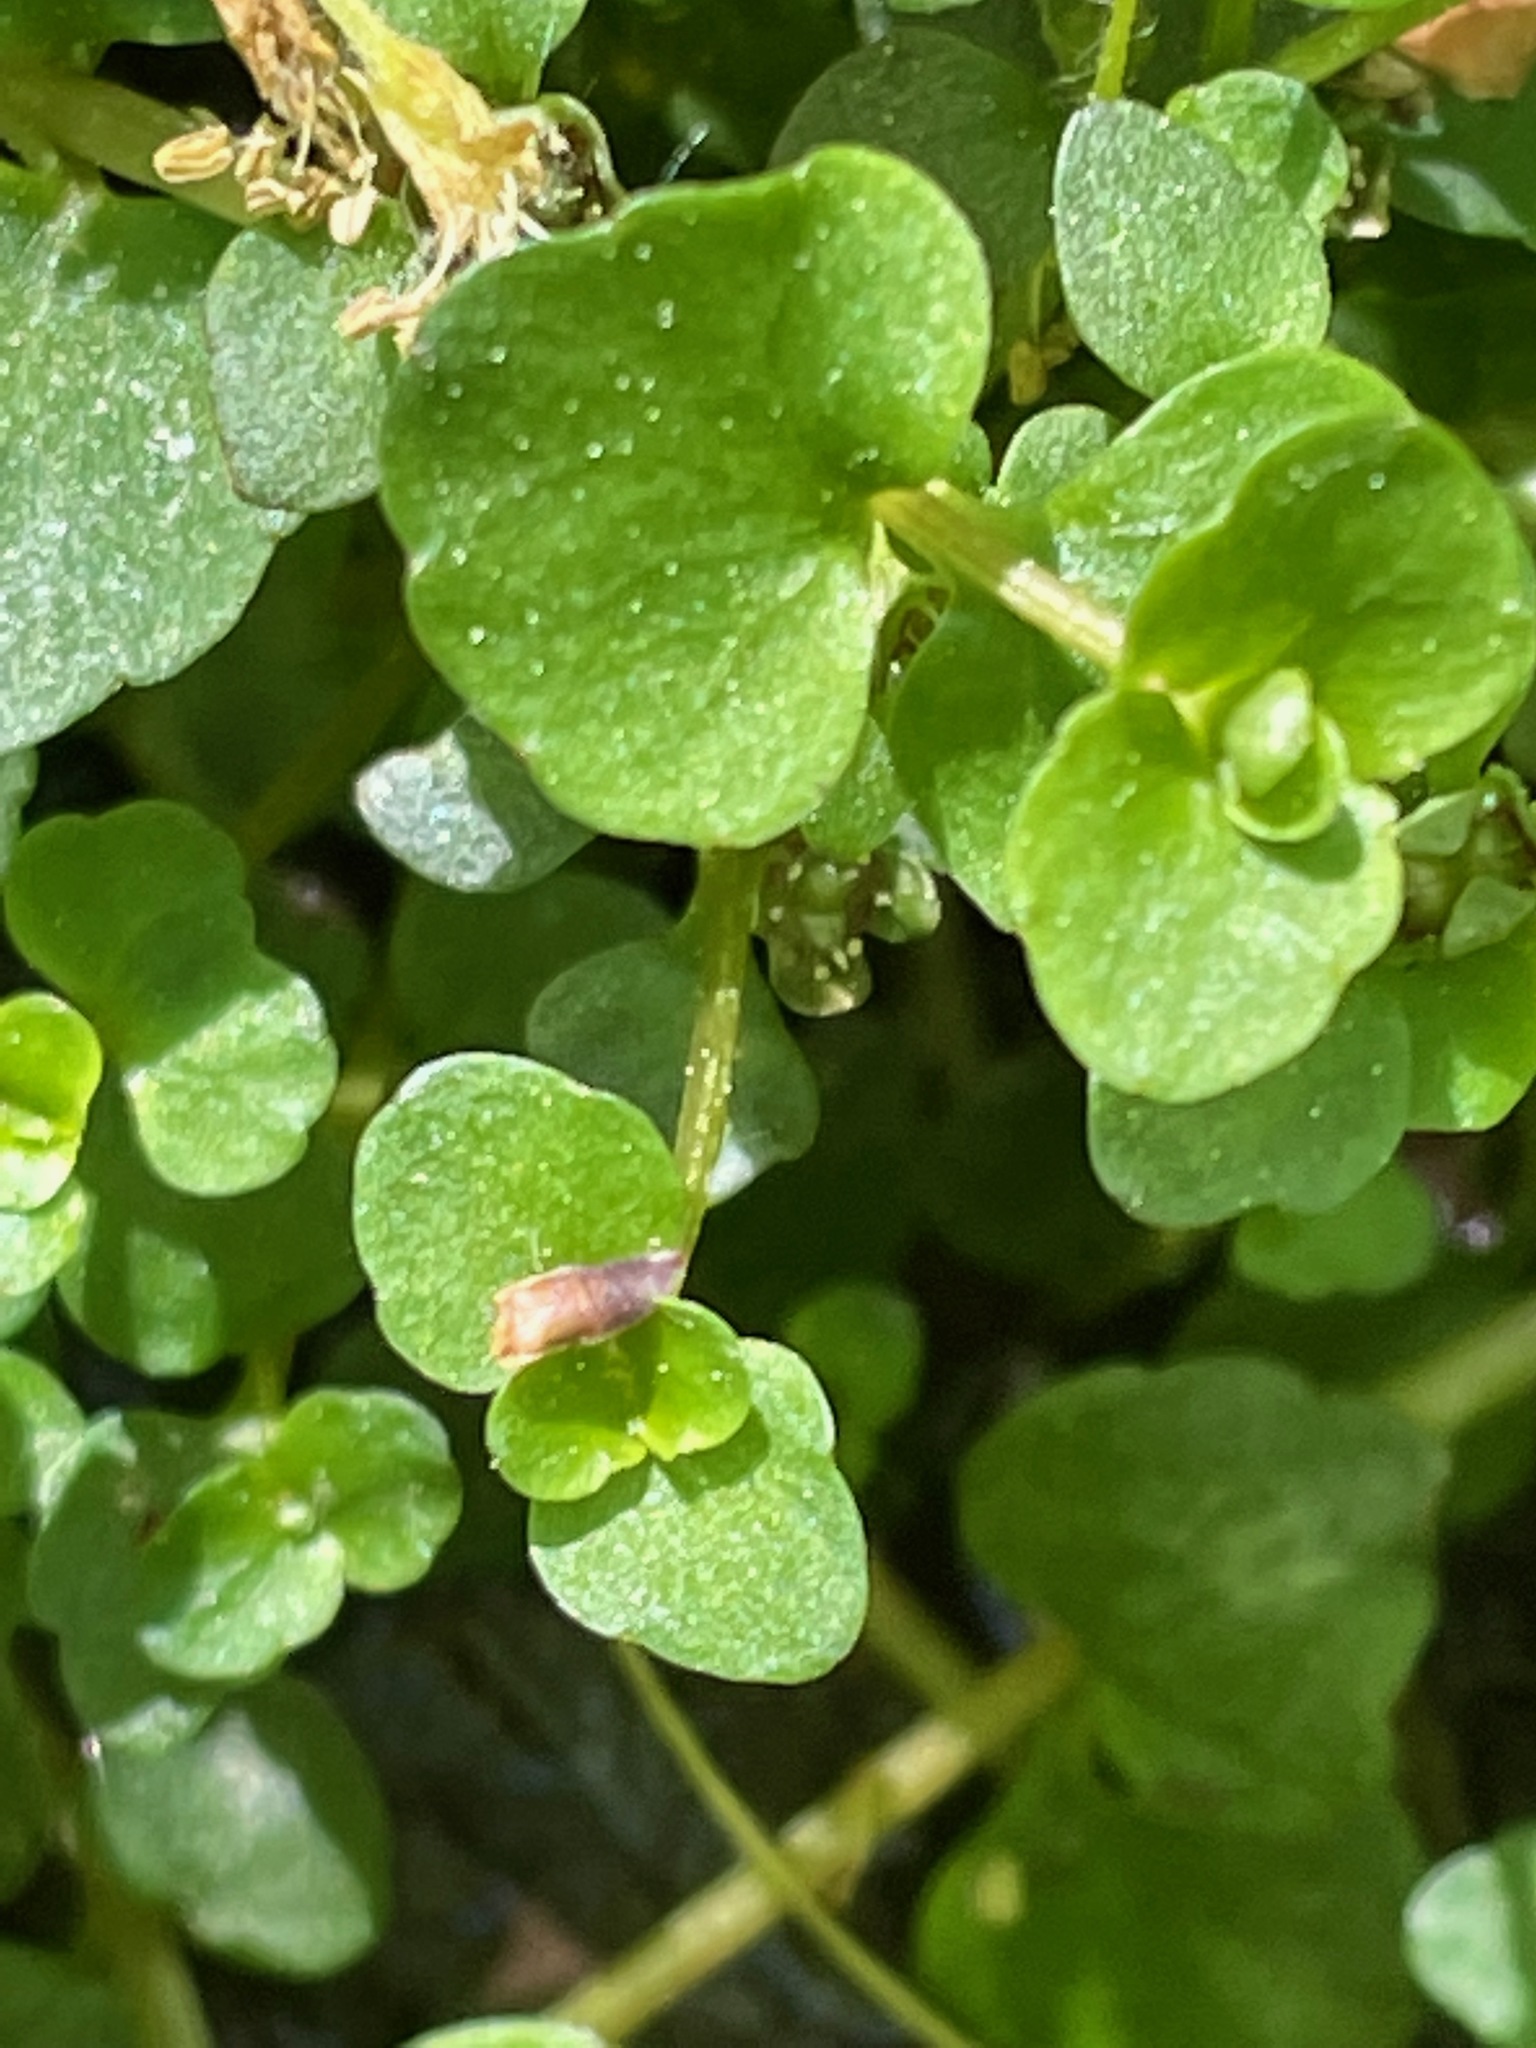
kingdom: Plantae
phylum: Tracheophyta
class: Magnoliopsida
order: Saxifragales
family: Saxifragaceae
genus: Chrysosplenium
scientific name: Chrysosplenium americanum
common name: American golden-saxifrage
